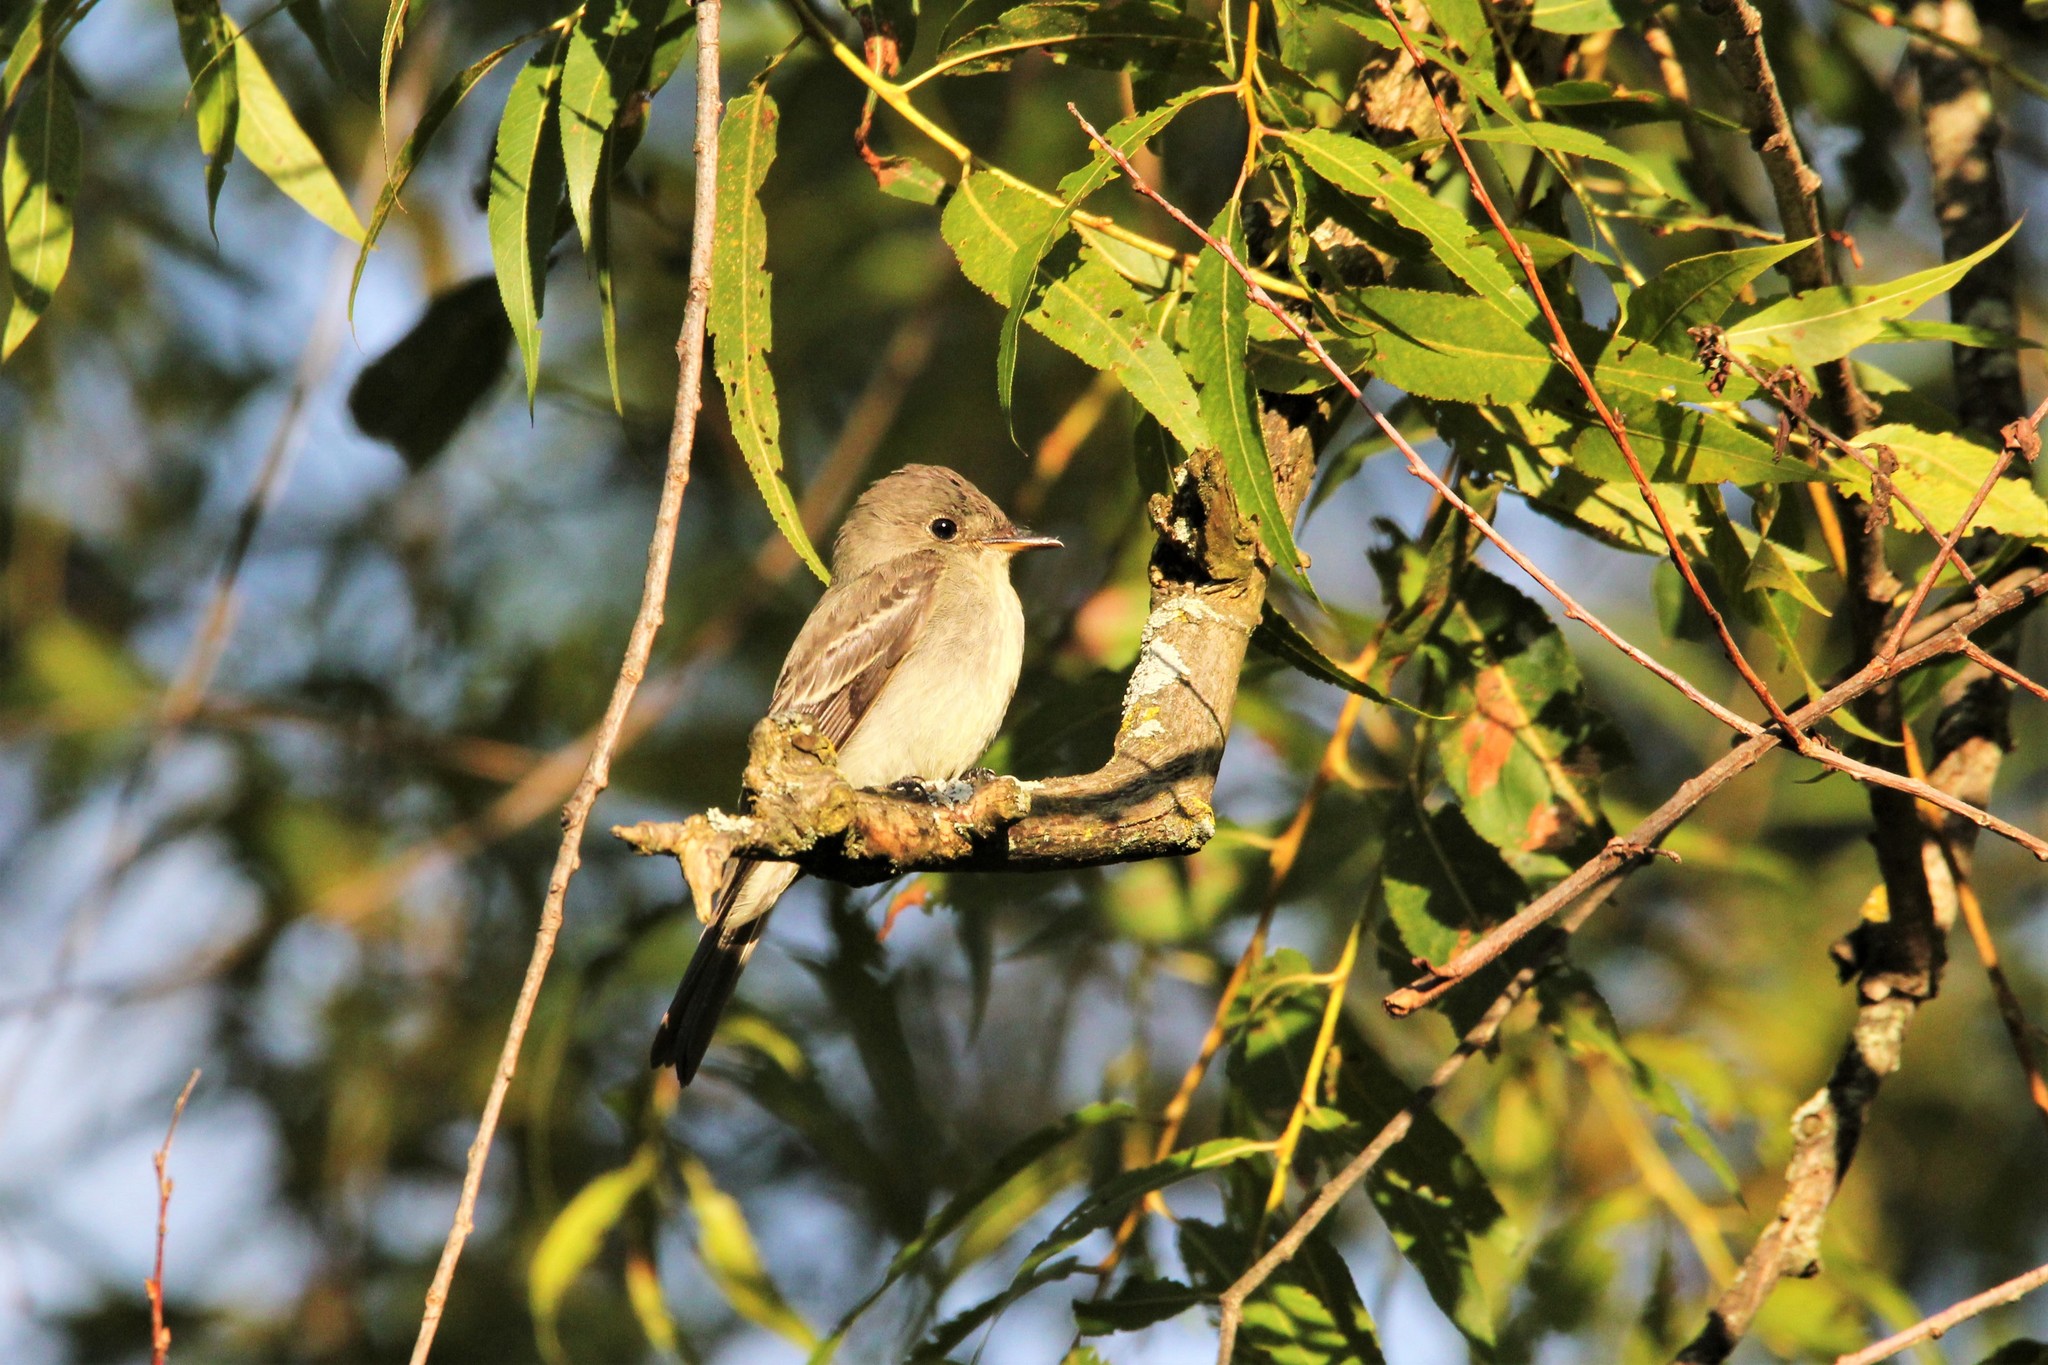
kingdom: Animalia
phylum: Chordata
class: Aves
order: Passeriformes
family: Tyrannidae
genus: Contopus
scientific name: Contopus virens
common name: Eastern wood-pewee
